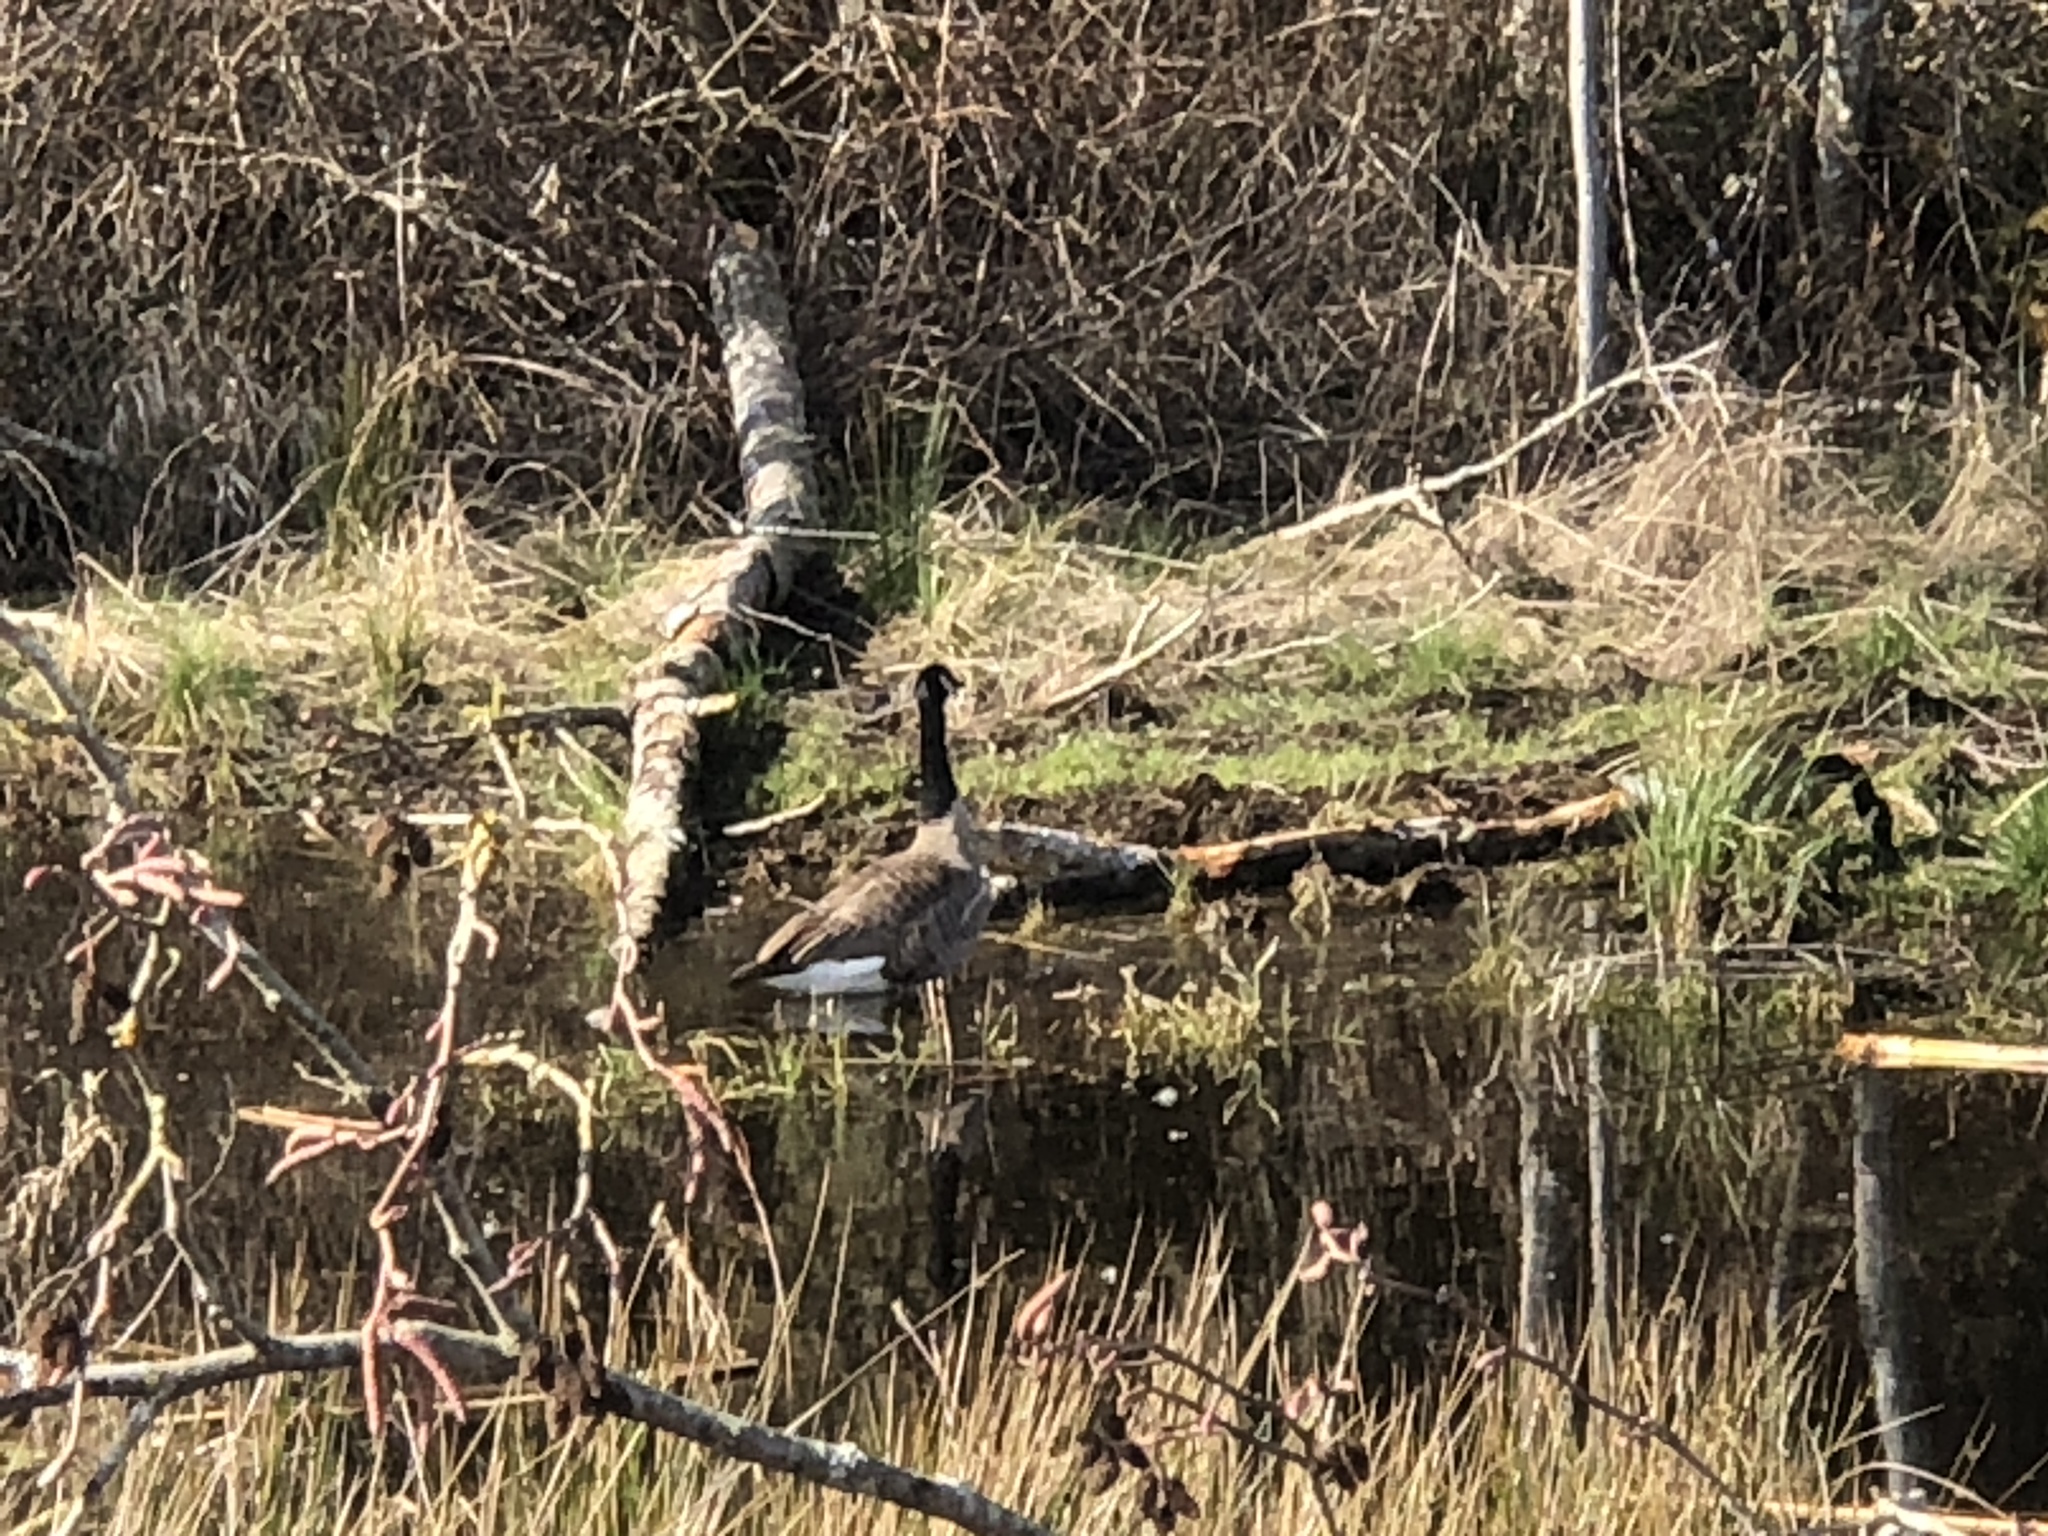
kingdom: Animalia
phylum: Chordata
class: Aves
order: Anseriformes
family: Anatidae
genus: Branta
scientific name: Branta canadensis
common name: Canada goose
